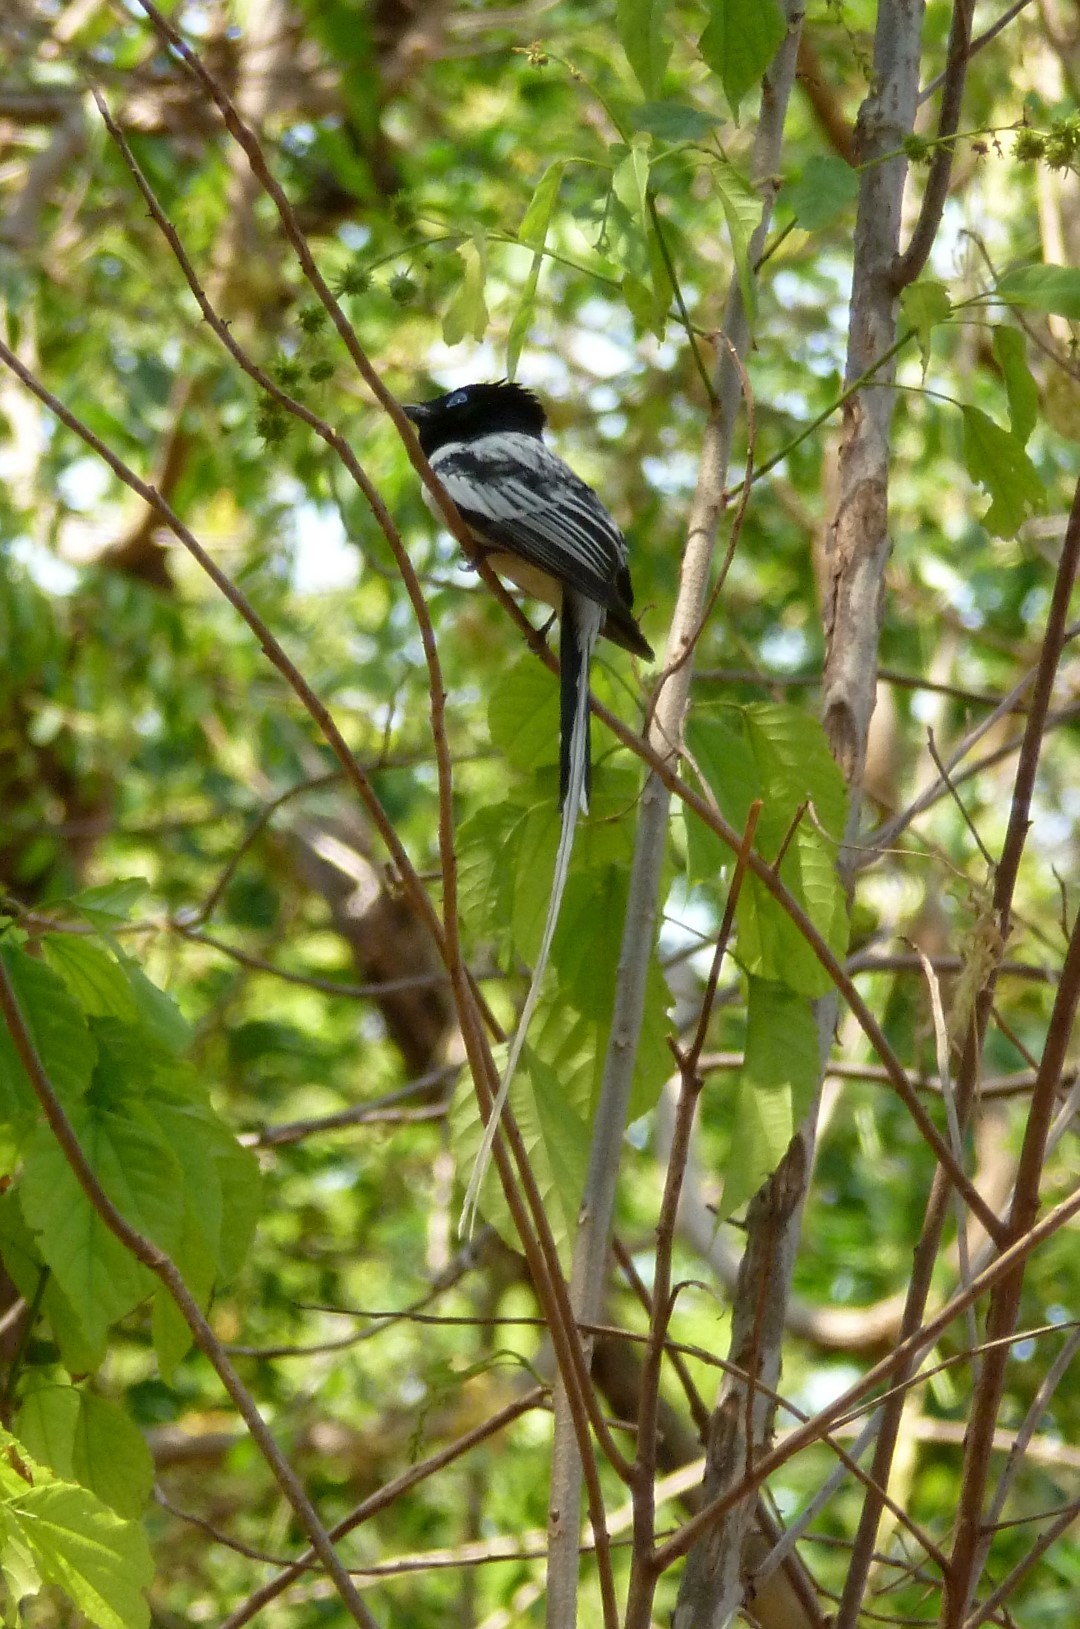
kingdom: Animalia
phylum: Chordata
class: Aves
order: Passeriformes
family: Monarchidae
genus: Terpsiphone
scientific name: Terpsiphone mutata
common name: Malagasy paradise flycatcher
